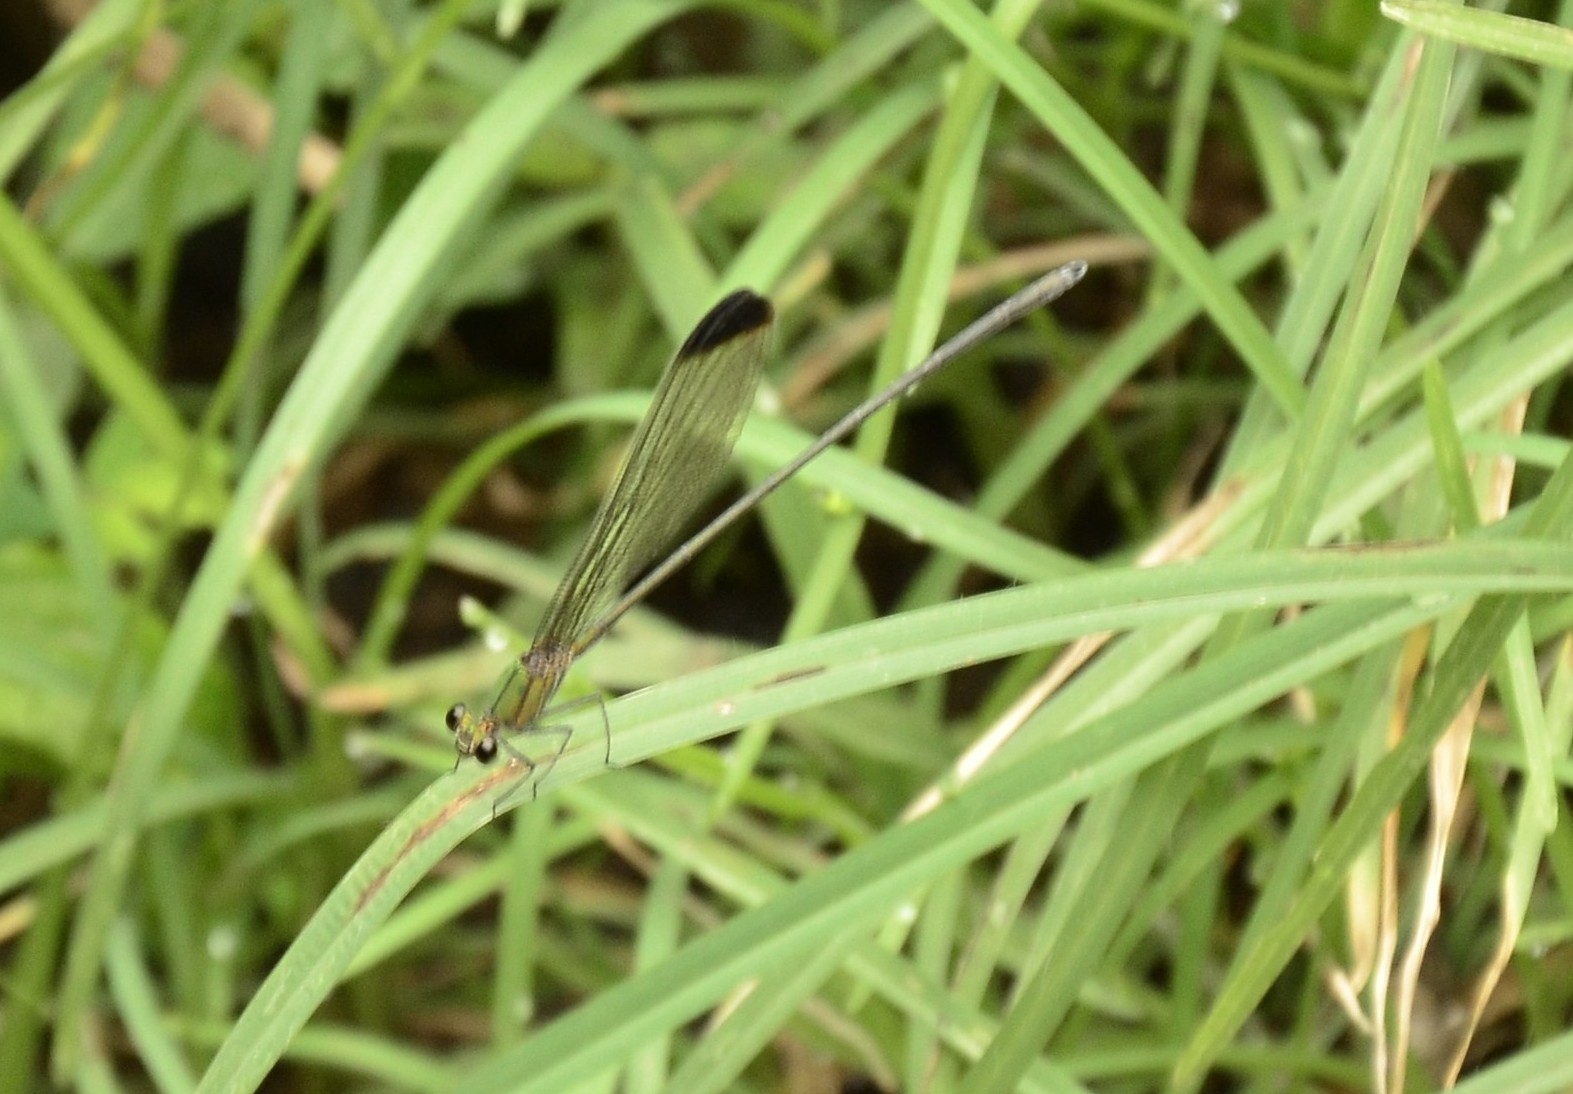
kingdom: Animalia
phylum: Arthropoda
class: Insecta
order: Odonata
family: Calopterygidae
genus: Vestalis
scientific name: Vestalis apicalis
